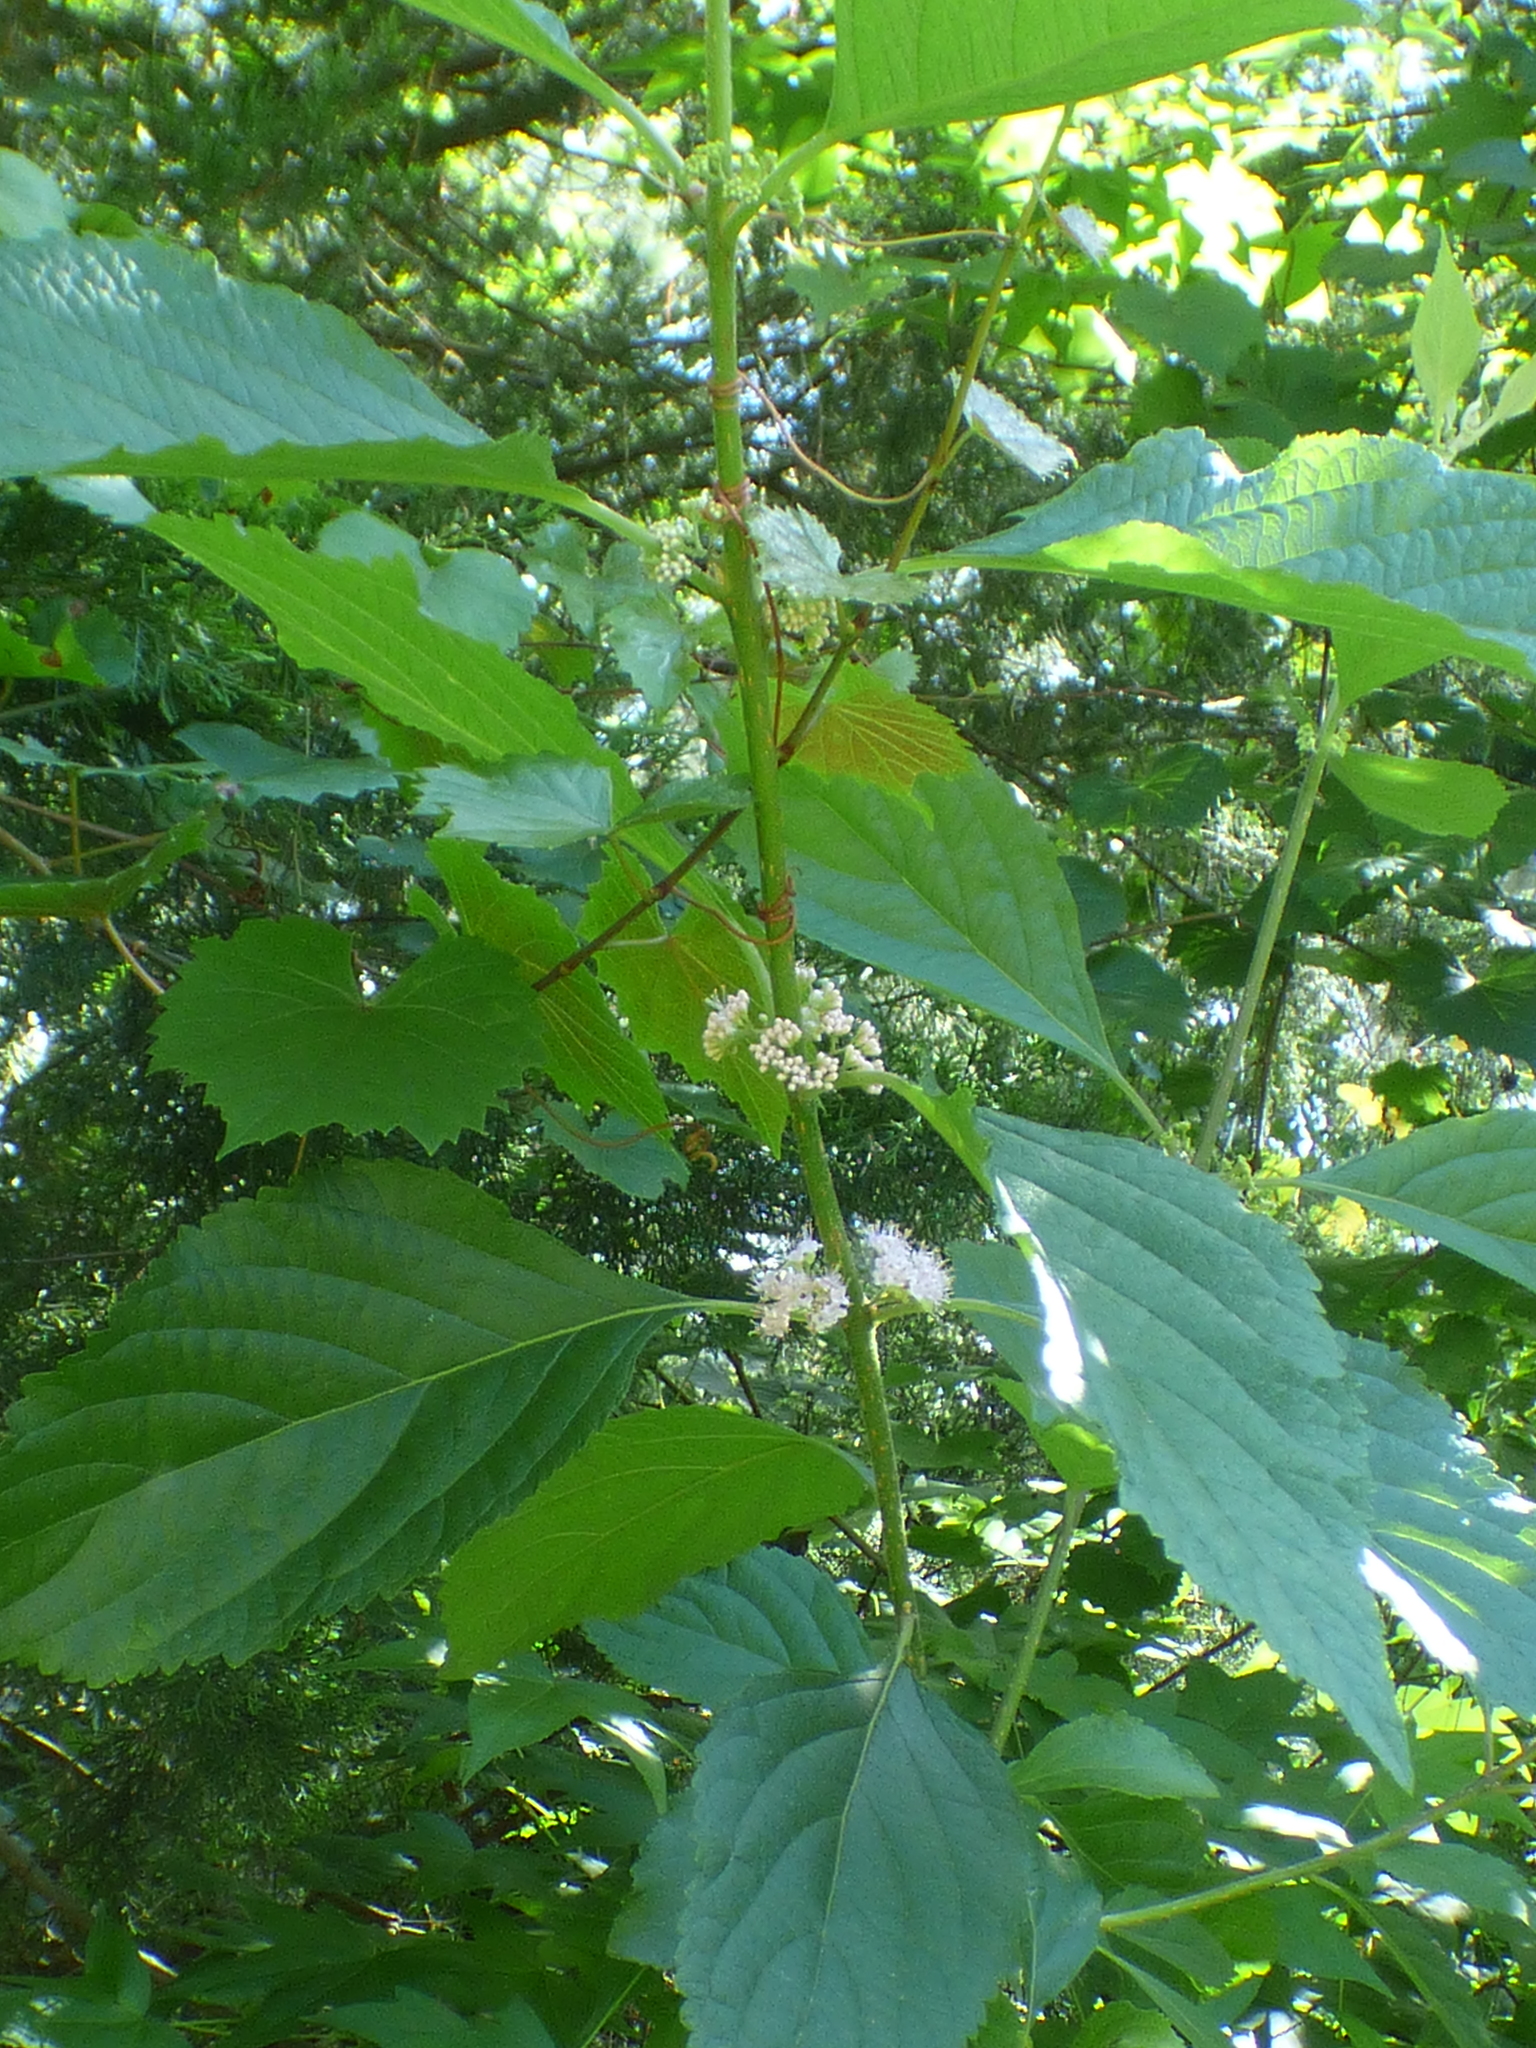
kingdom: Plantae
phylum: Tracheophyta
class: Magnoliopsida
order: Lamiales
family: Lamiaceae
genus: Callicarpa
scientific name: Callicarpa americana
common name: American beautyberry
